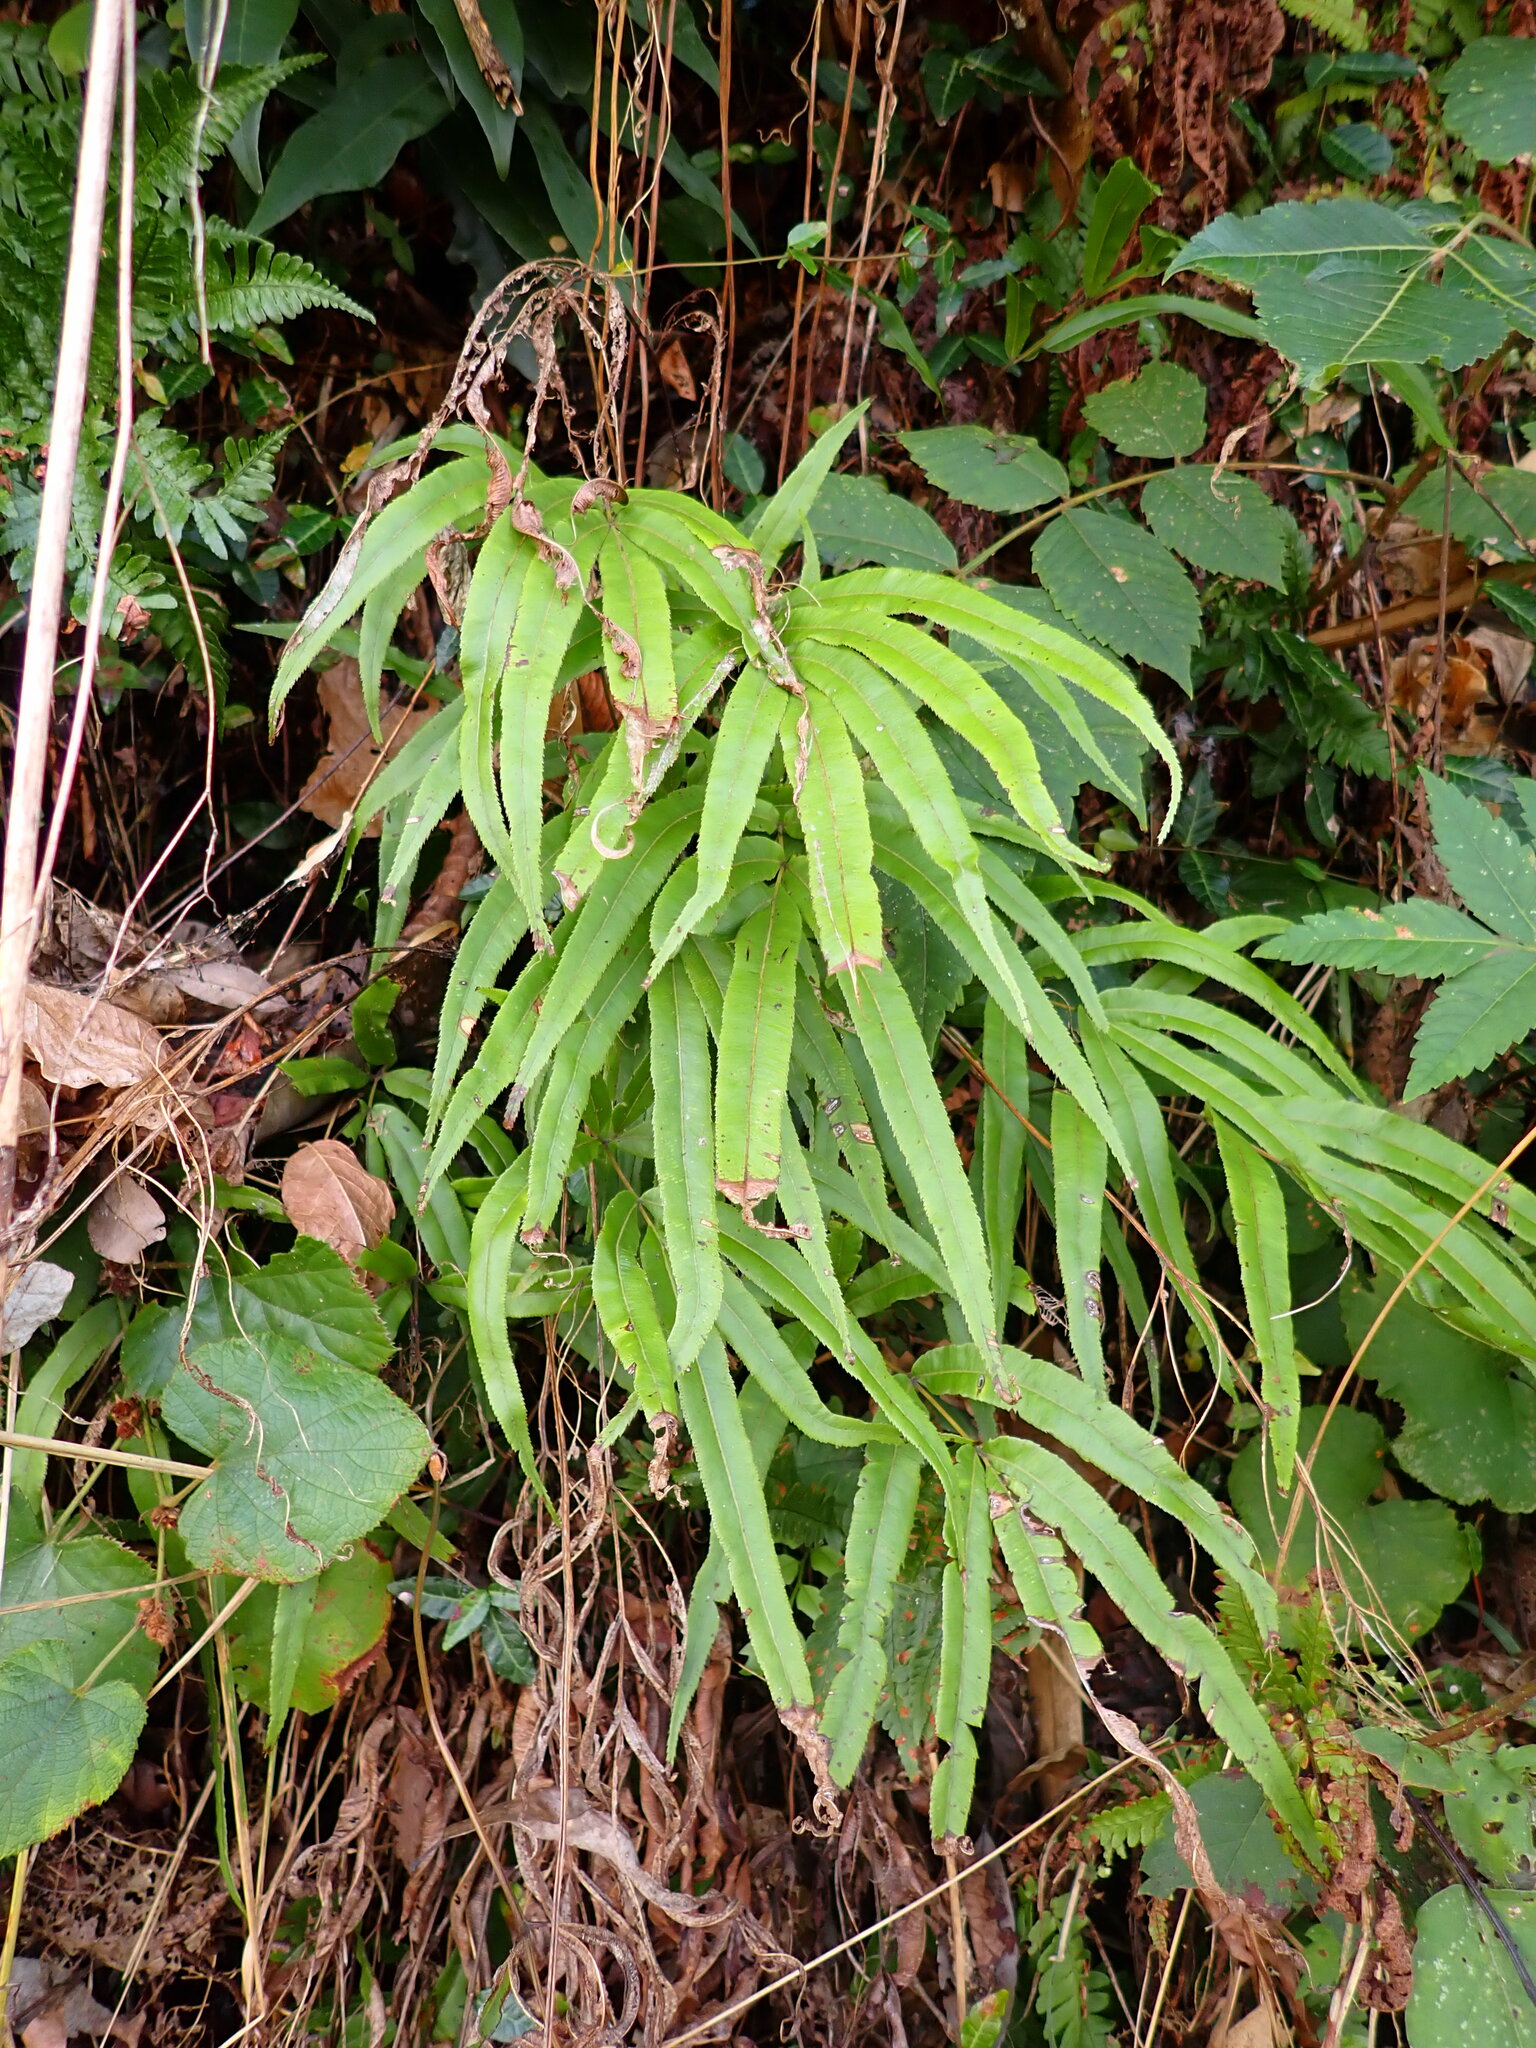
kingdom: Plantae
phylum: Tracheophyta
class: Polypodiopsida
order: Polypodiales
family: Pteridaceae
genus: Pteris
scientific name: Pteris cretica
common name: Ribbon fern
